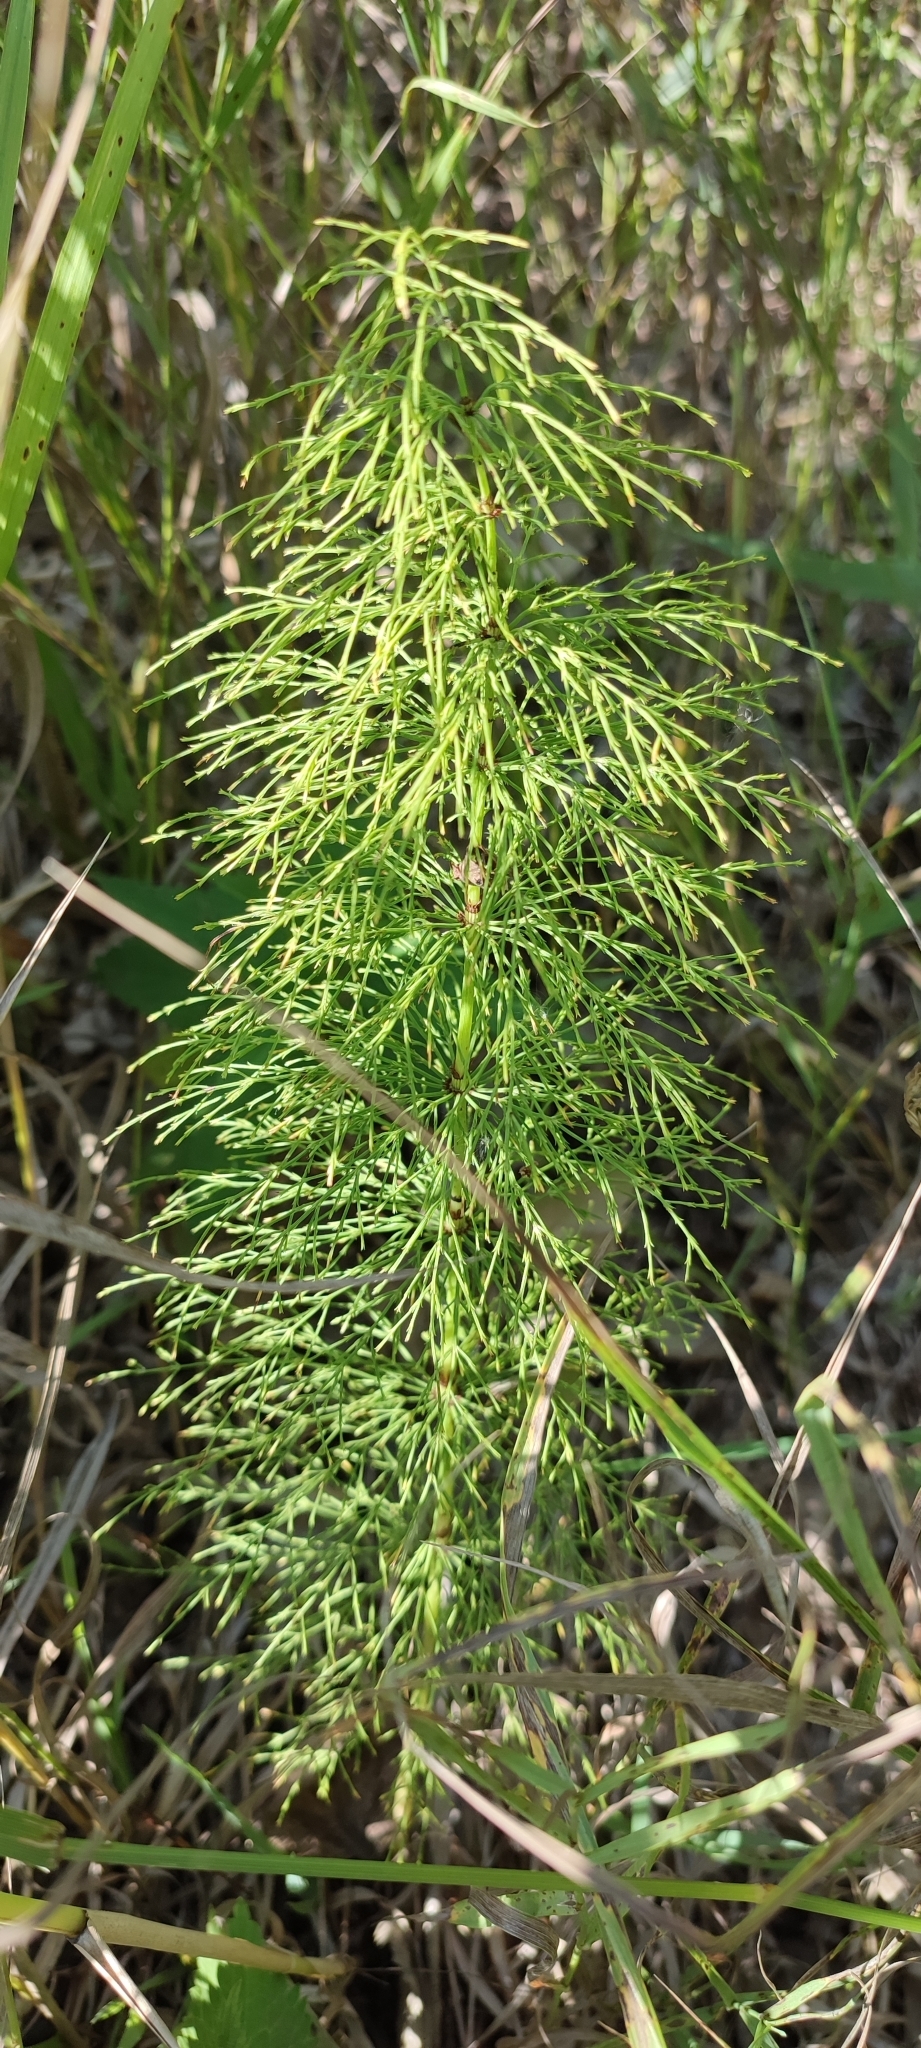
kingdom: Plantae
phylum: Tracheophyta
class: Polypodiopsida
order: Equisetales
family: Equisetaceae
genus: Equisetum
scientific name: Equisetum sylvaticum
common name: Wood horsetail
